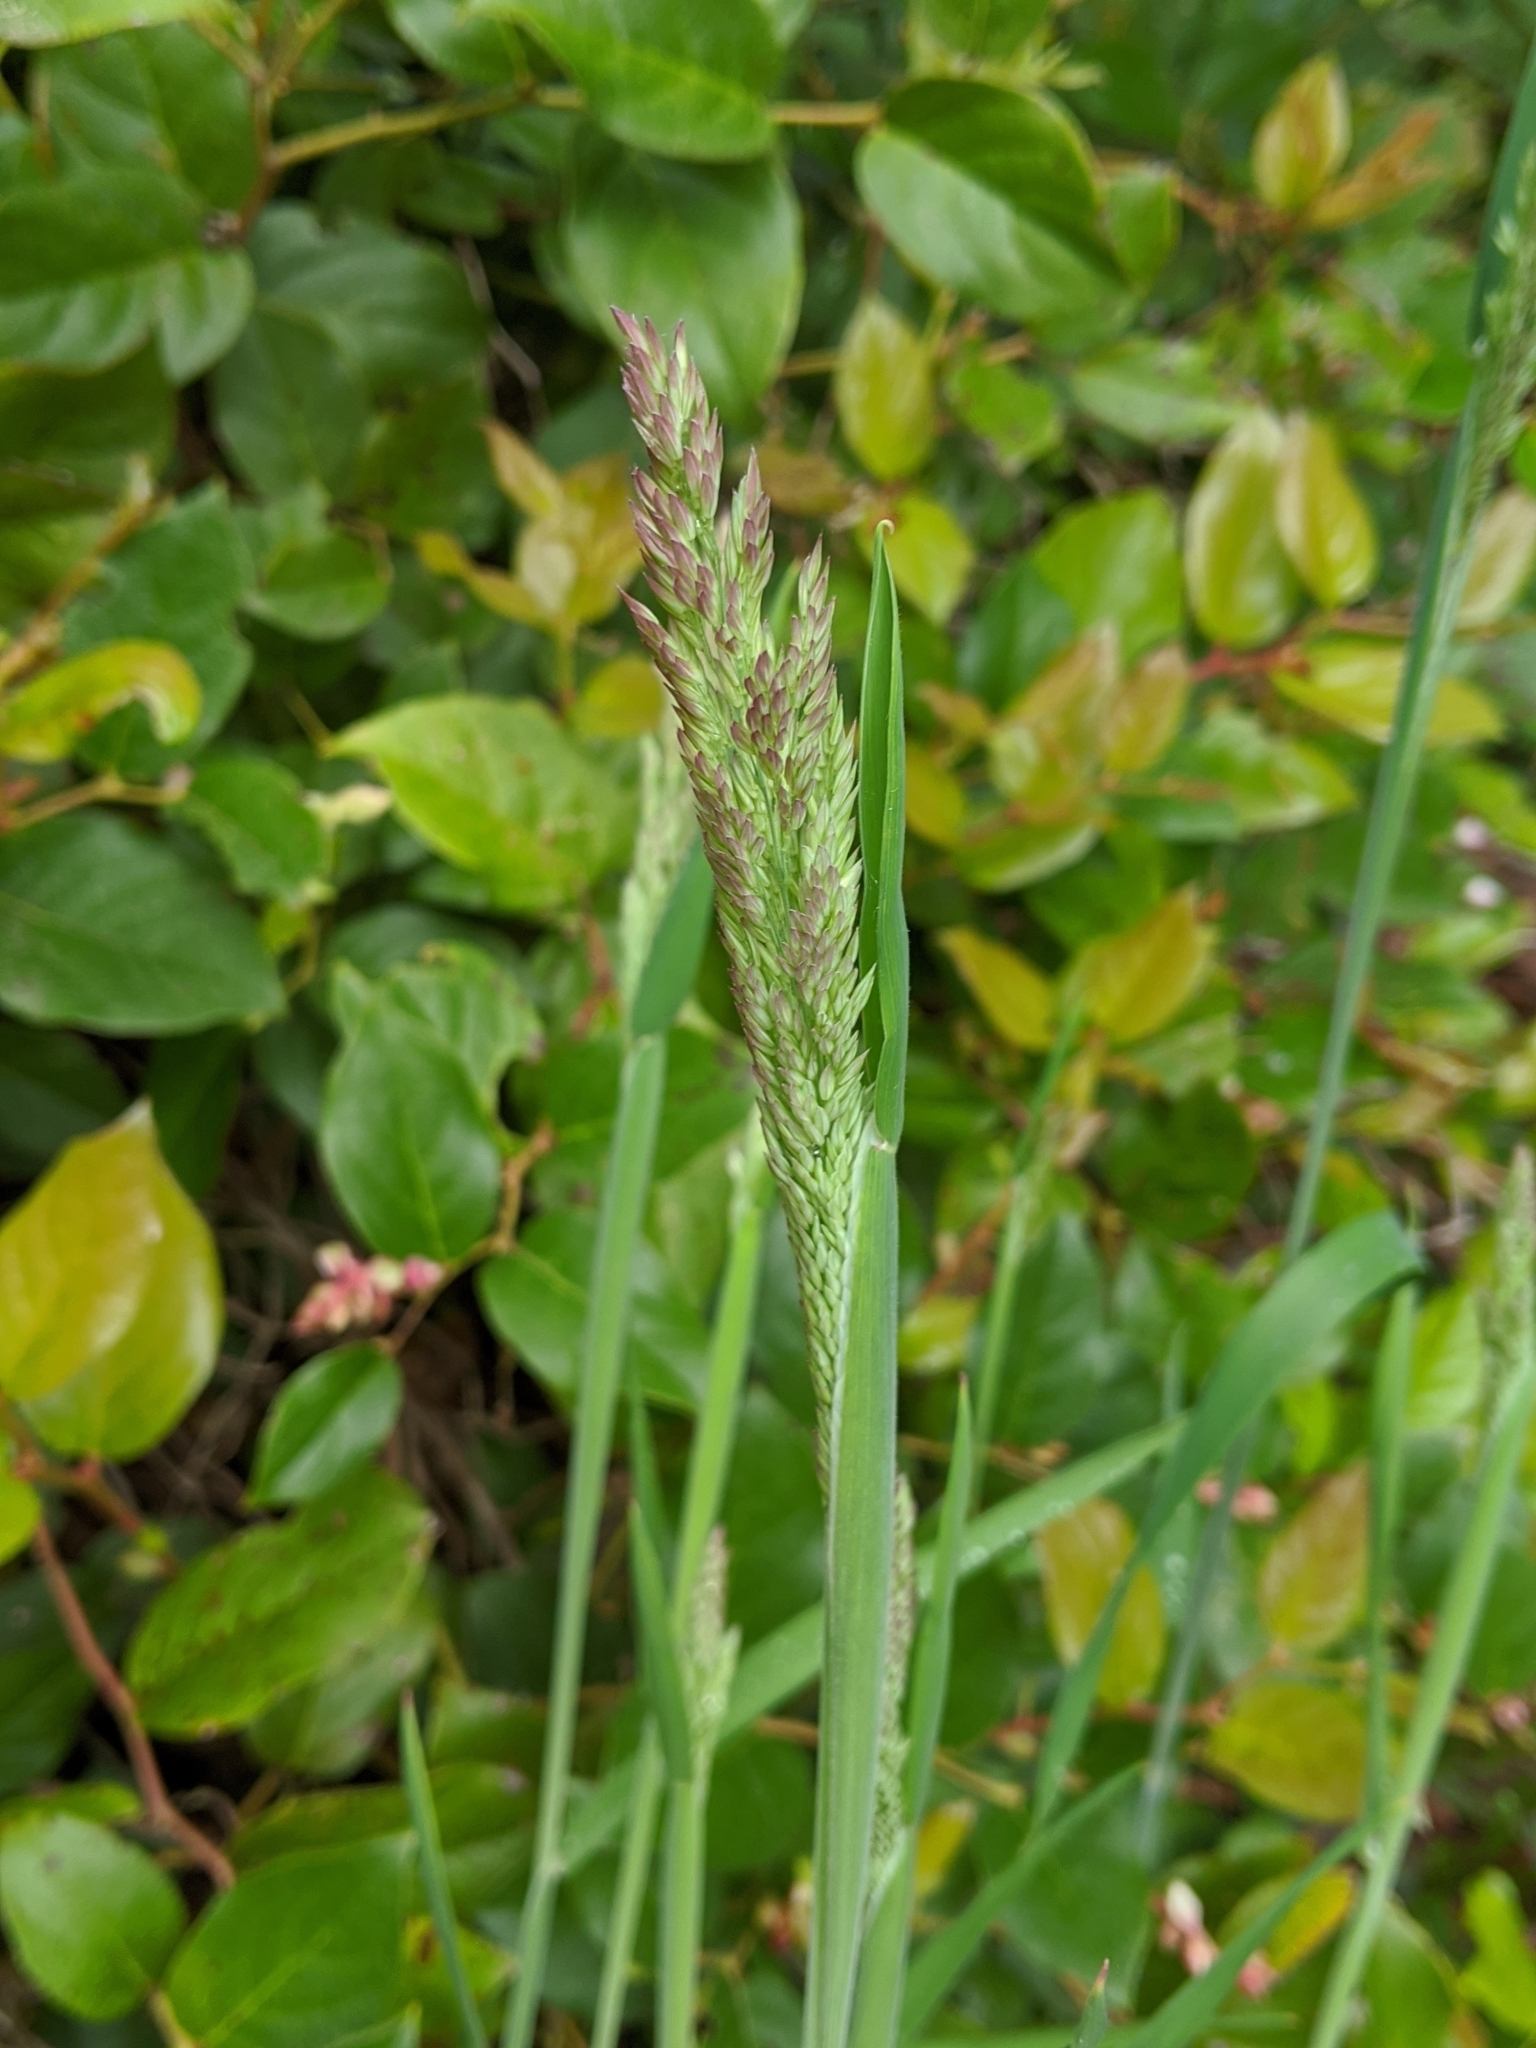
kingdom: Plantae
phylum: Tracheophyta
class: Liliopsida
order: Poales
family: Poaceae
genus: Holcus
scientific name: Holcus lanatus
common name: Yorkshire-fog
